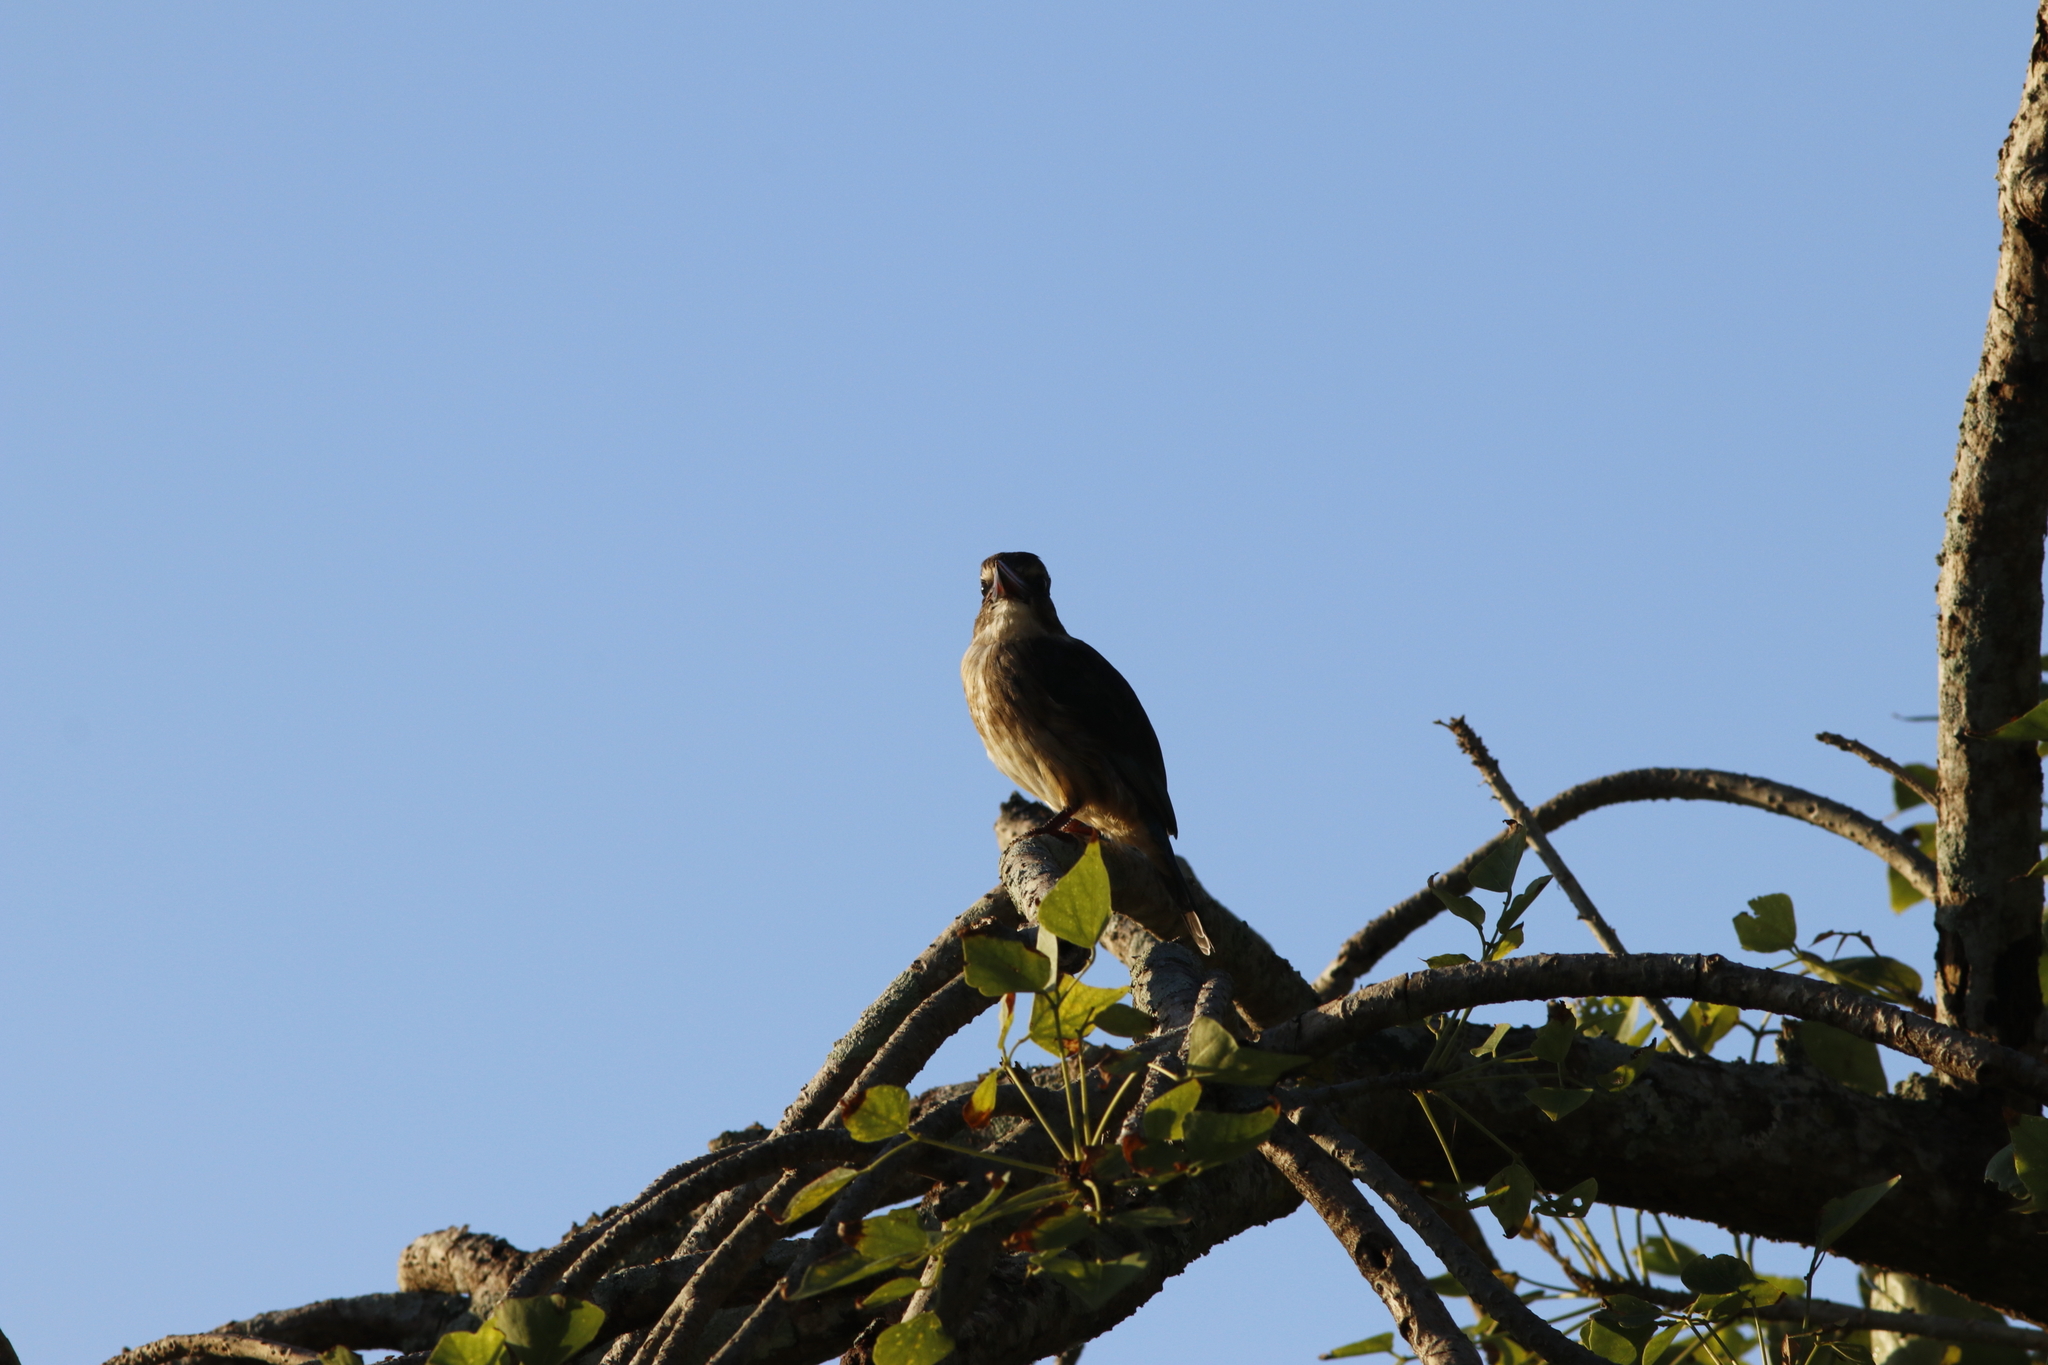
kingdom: Animalia
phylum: Chordata
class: Aves
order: Coraciiformes
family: Alcedinidae
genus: Halcyon
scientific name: Halcyon albiventris
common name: Brown-hooded kingfisher
